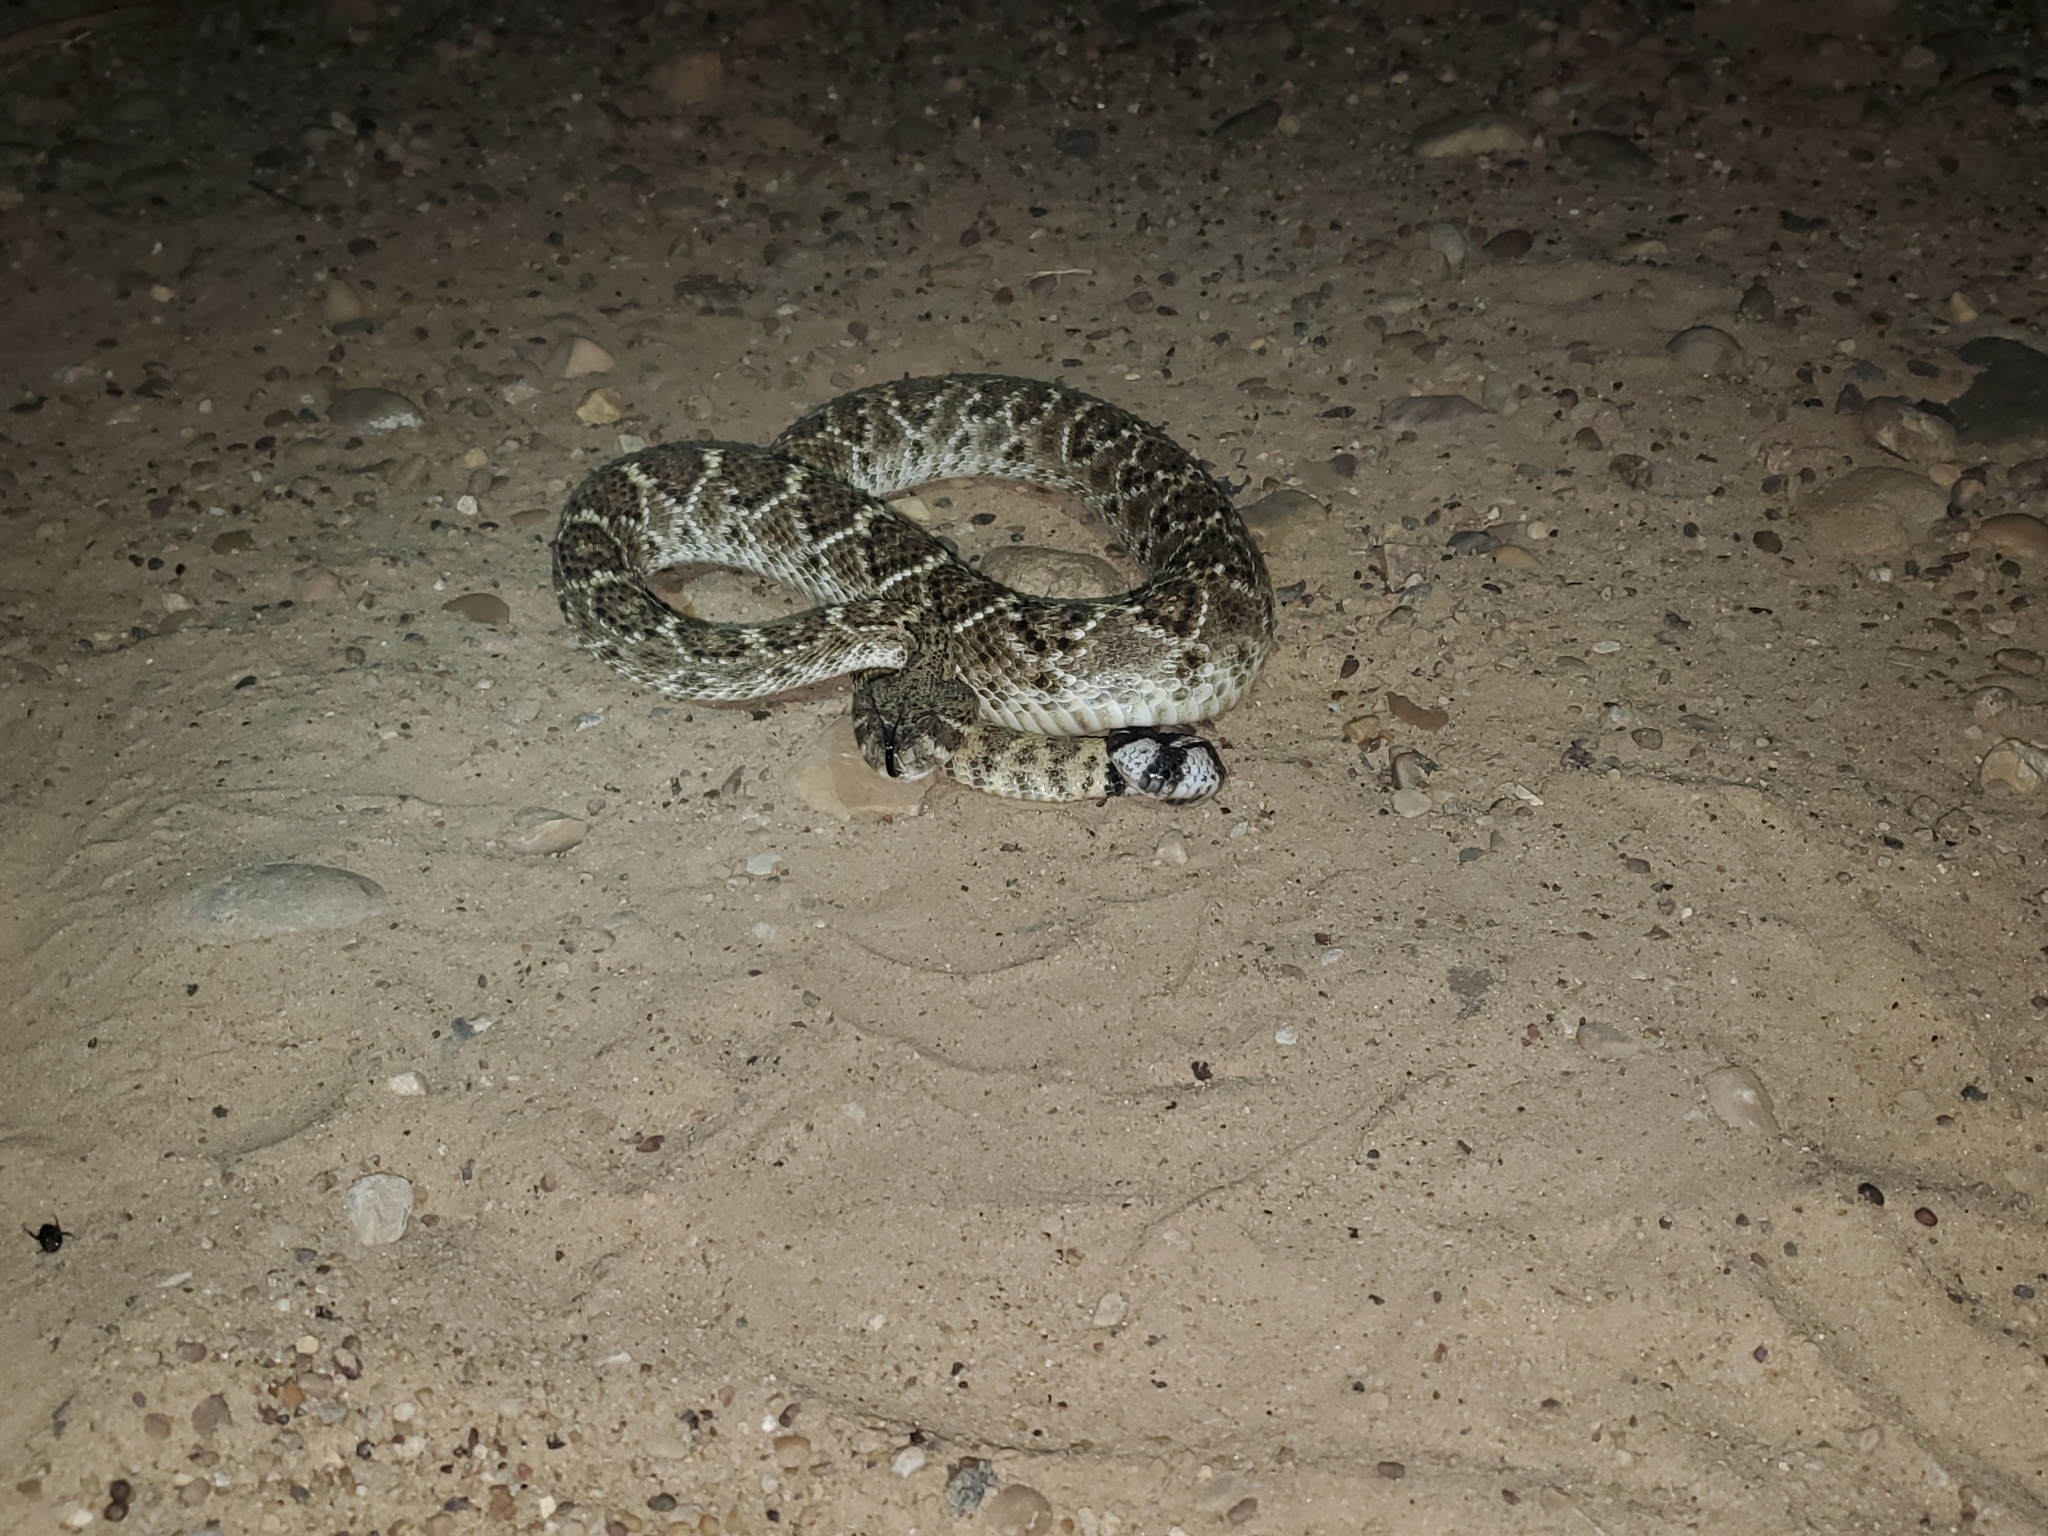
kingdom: Animalia
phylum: Chordata
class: Squamata
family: Viperidae
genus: Crotalus
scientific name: Crotalus atrox
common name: Western diamond-backed rattlesnake
